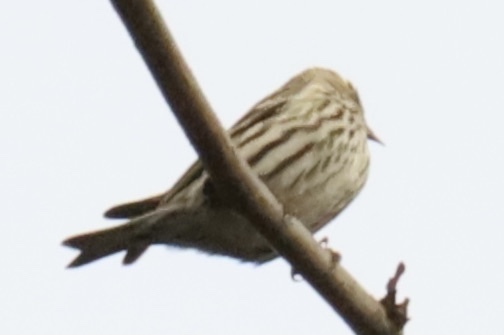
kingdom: Animalia
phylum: Chordata
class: Aves
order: Passeriformes
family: Fringillidae
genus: Spinus
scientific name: Spinus pinus
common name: Pine siskin
